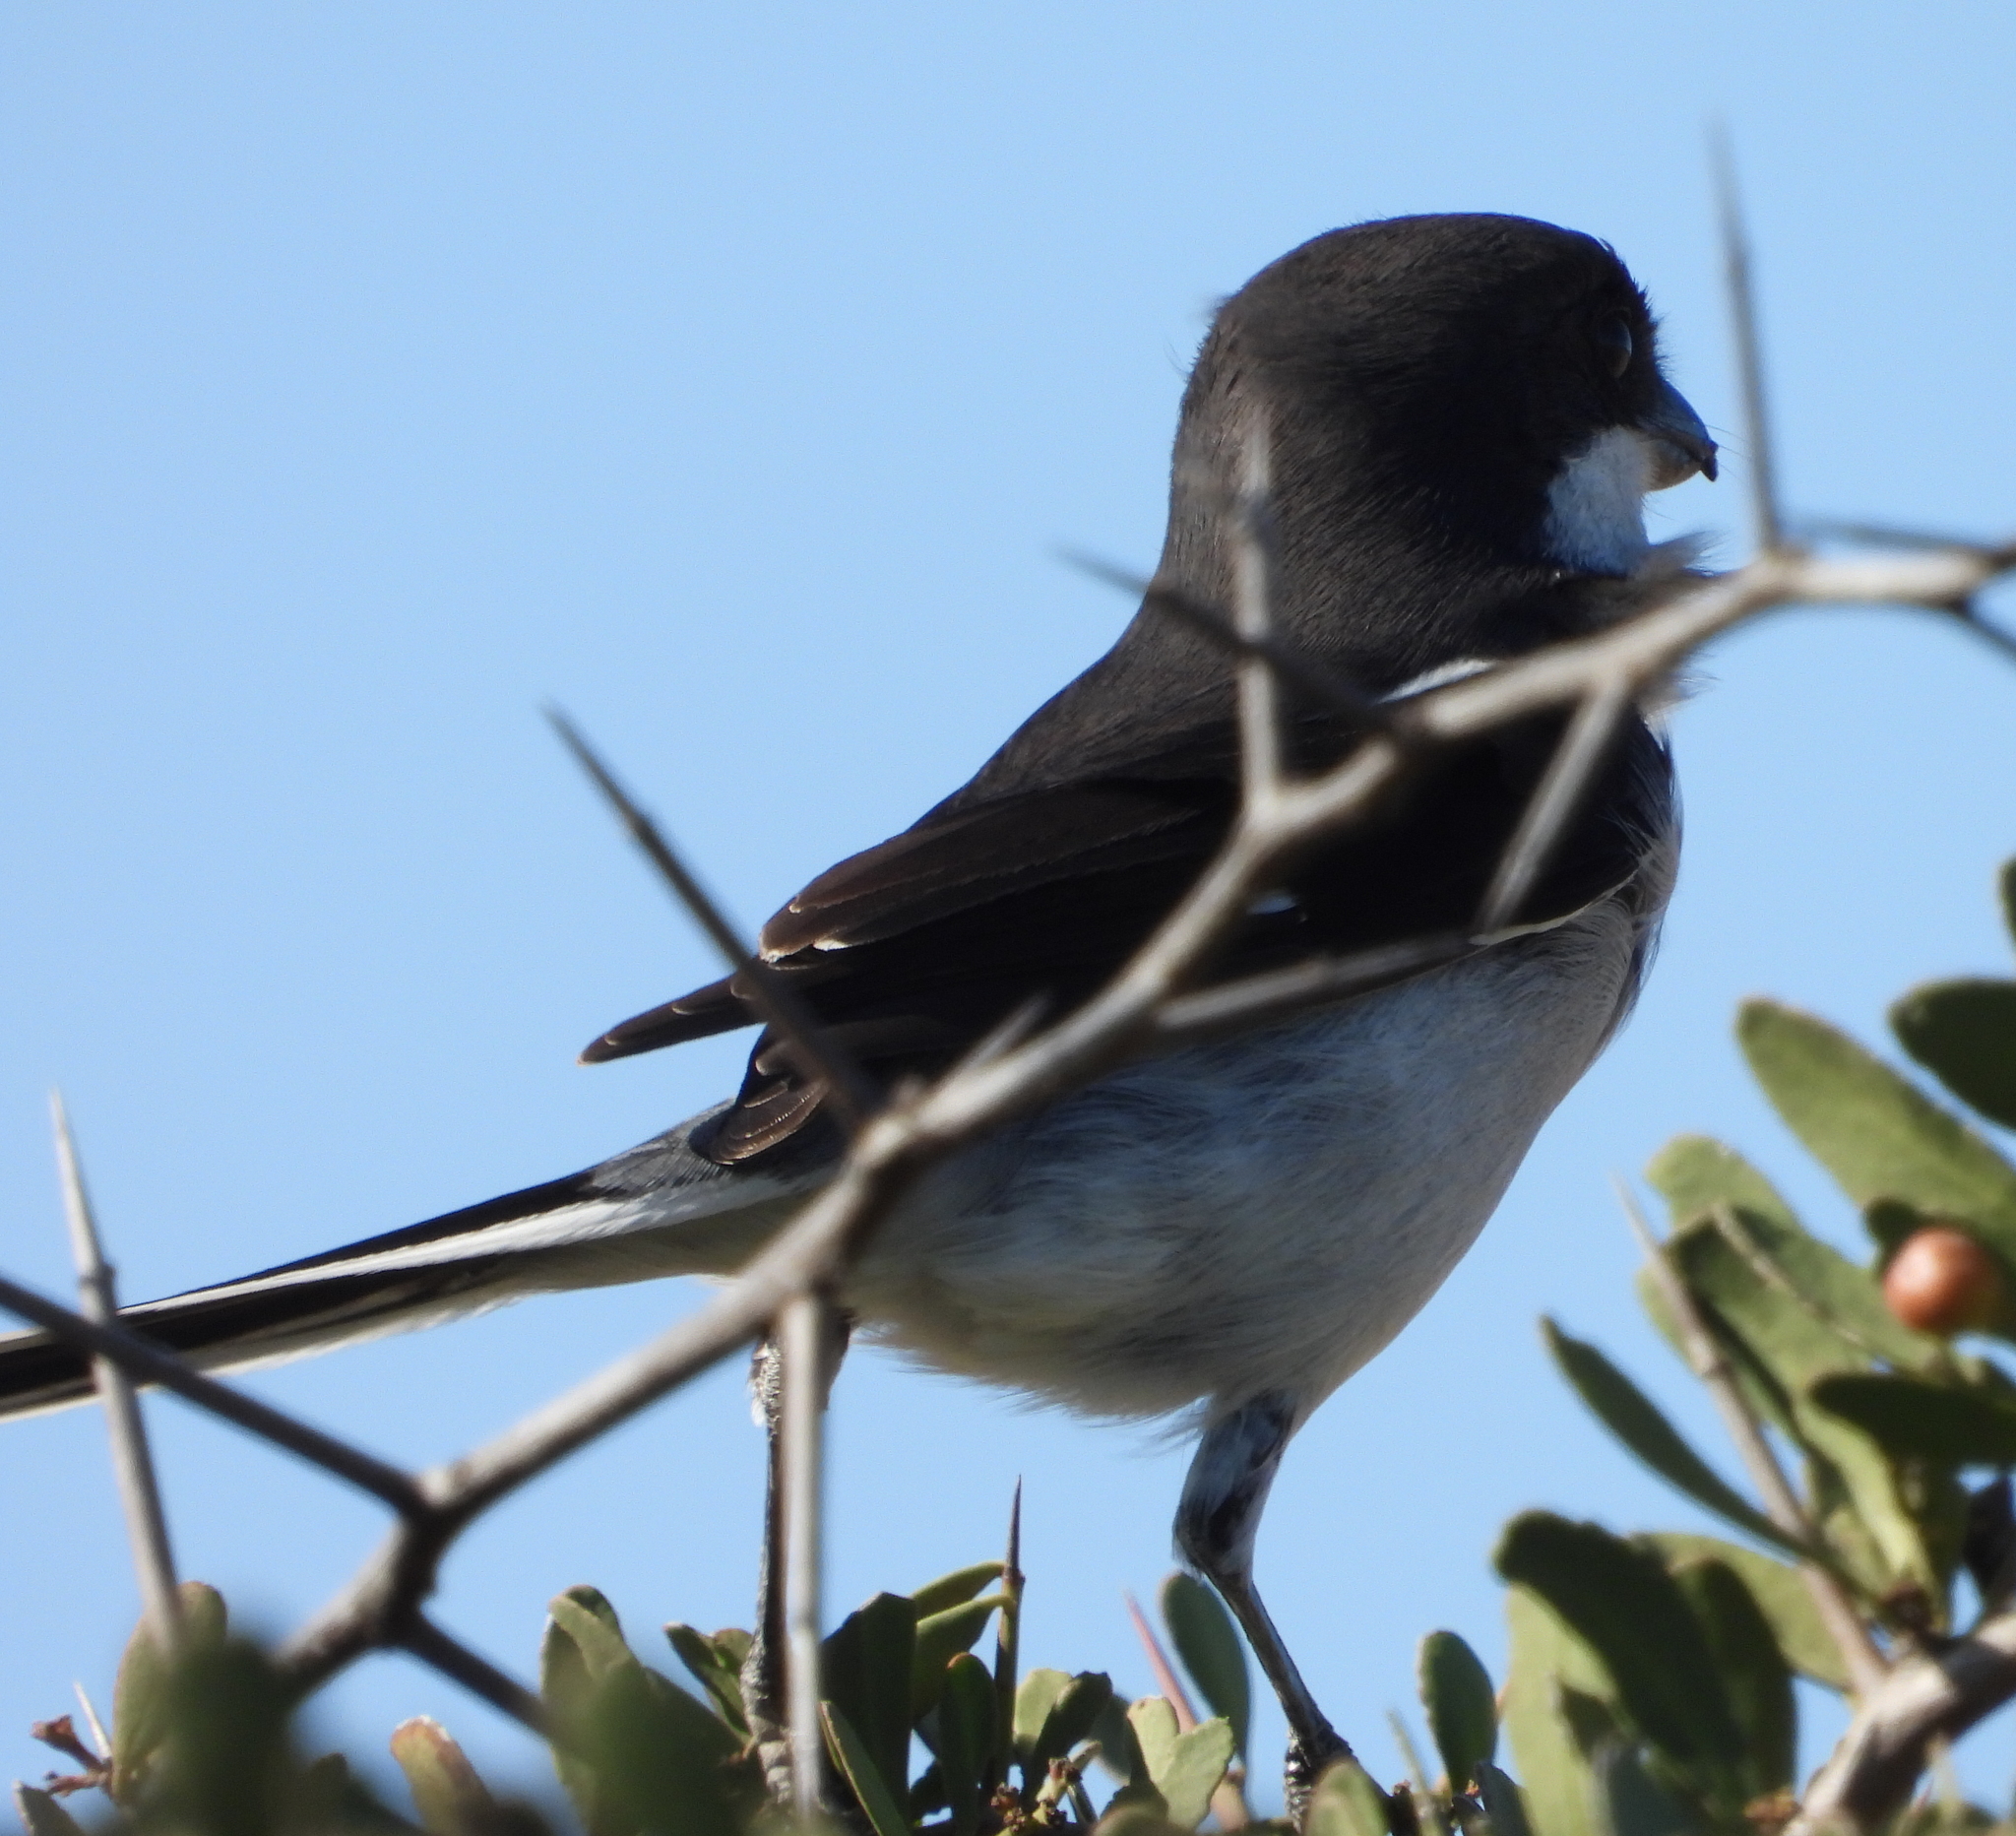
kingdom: Animalia
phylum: Chordata
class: Aves
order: Passeriformes
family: Laniidae
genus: Lanius
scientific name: Lanius collaris
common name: Southern fiscal
